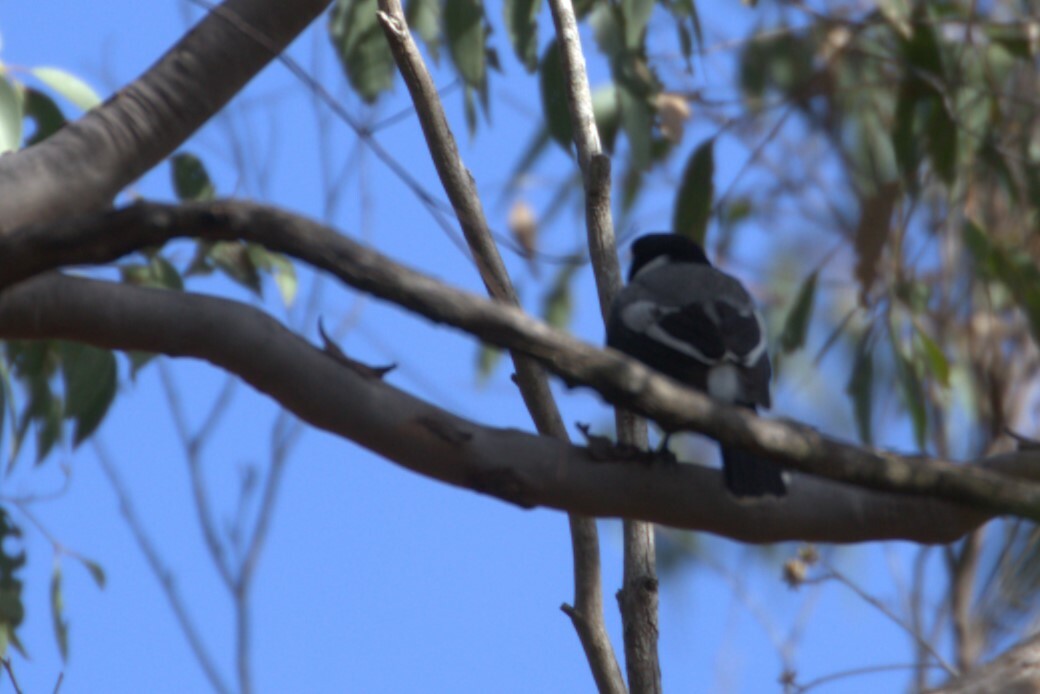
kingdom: Animalia
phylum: Chordata
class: Aves
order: Passeriformes
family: Cracticidae
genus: Cracticus
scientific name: Cracticus torquatus
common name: Grey butcherbird
